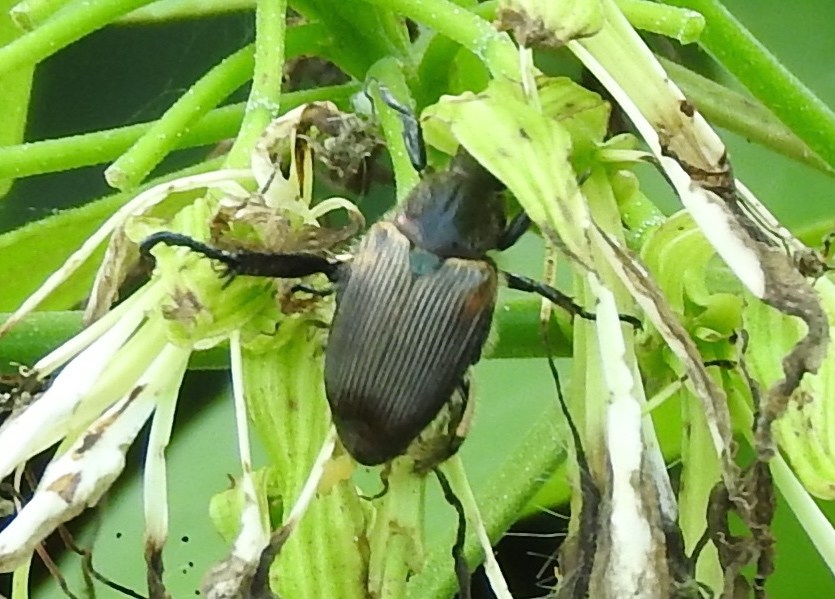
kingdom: Animalia
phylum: Arthropoda
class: Insecta
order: Coleoptera
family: Scarabaeidae
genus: Strigoderma
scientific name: Strigoderma sulcipennis
